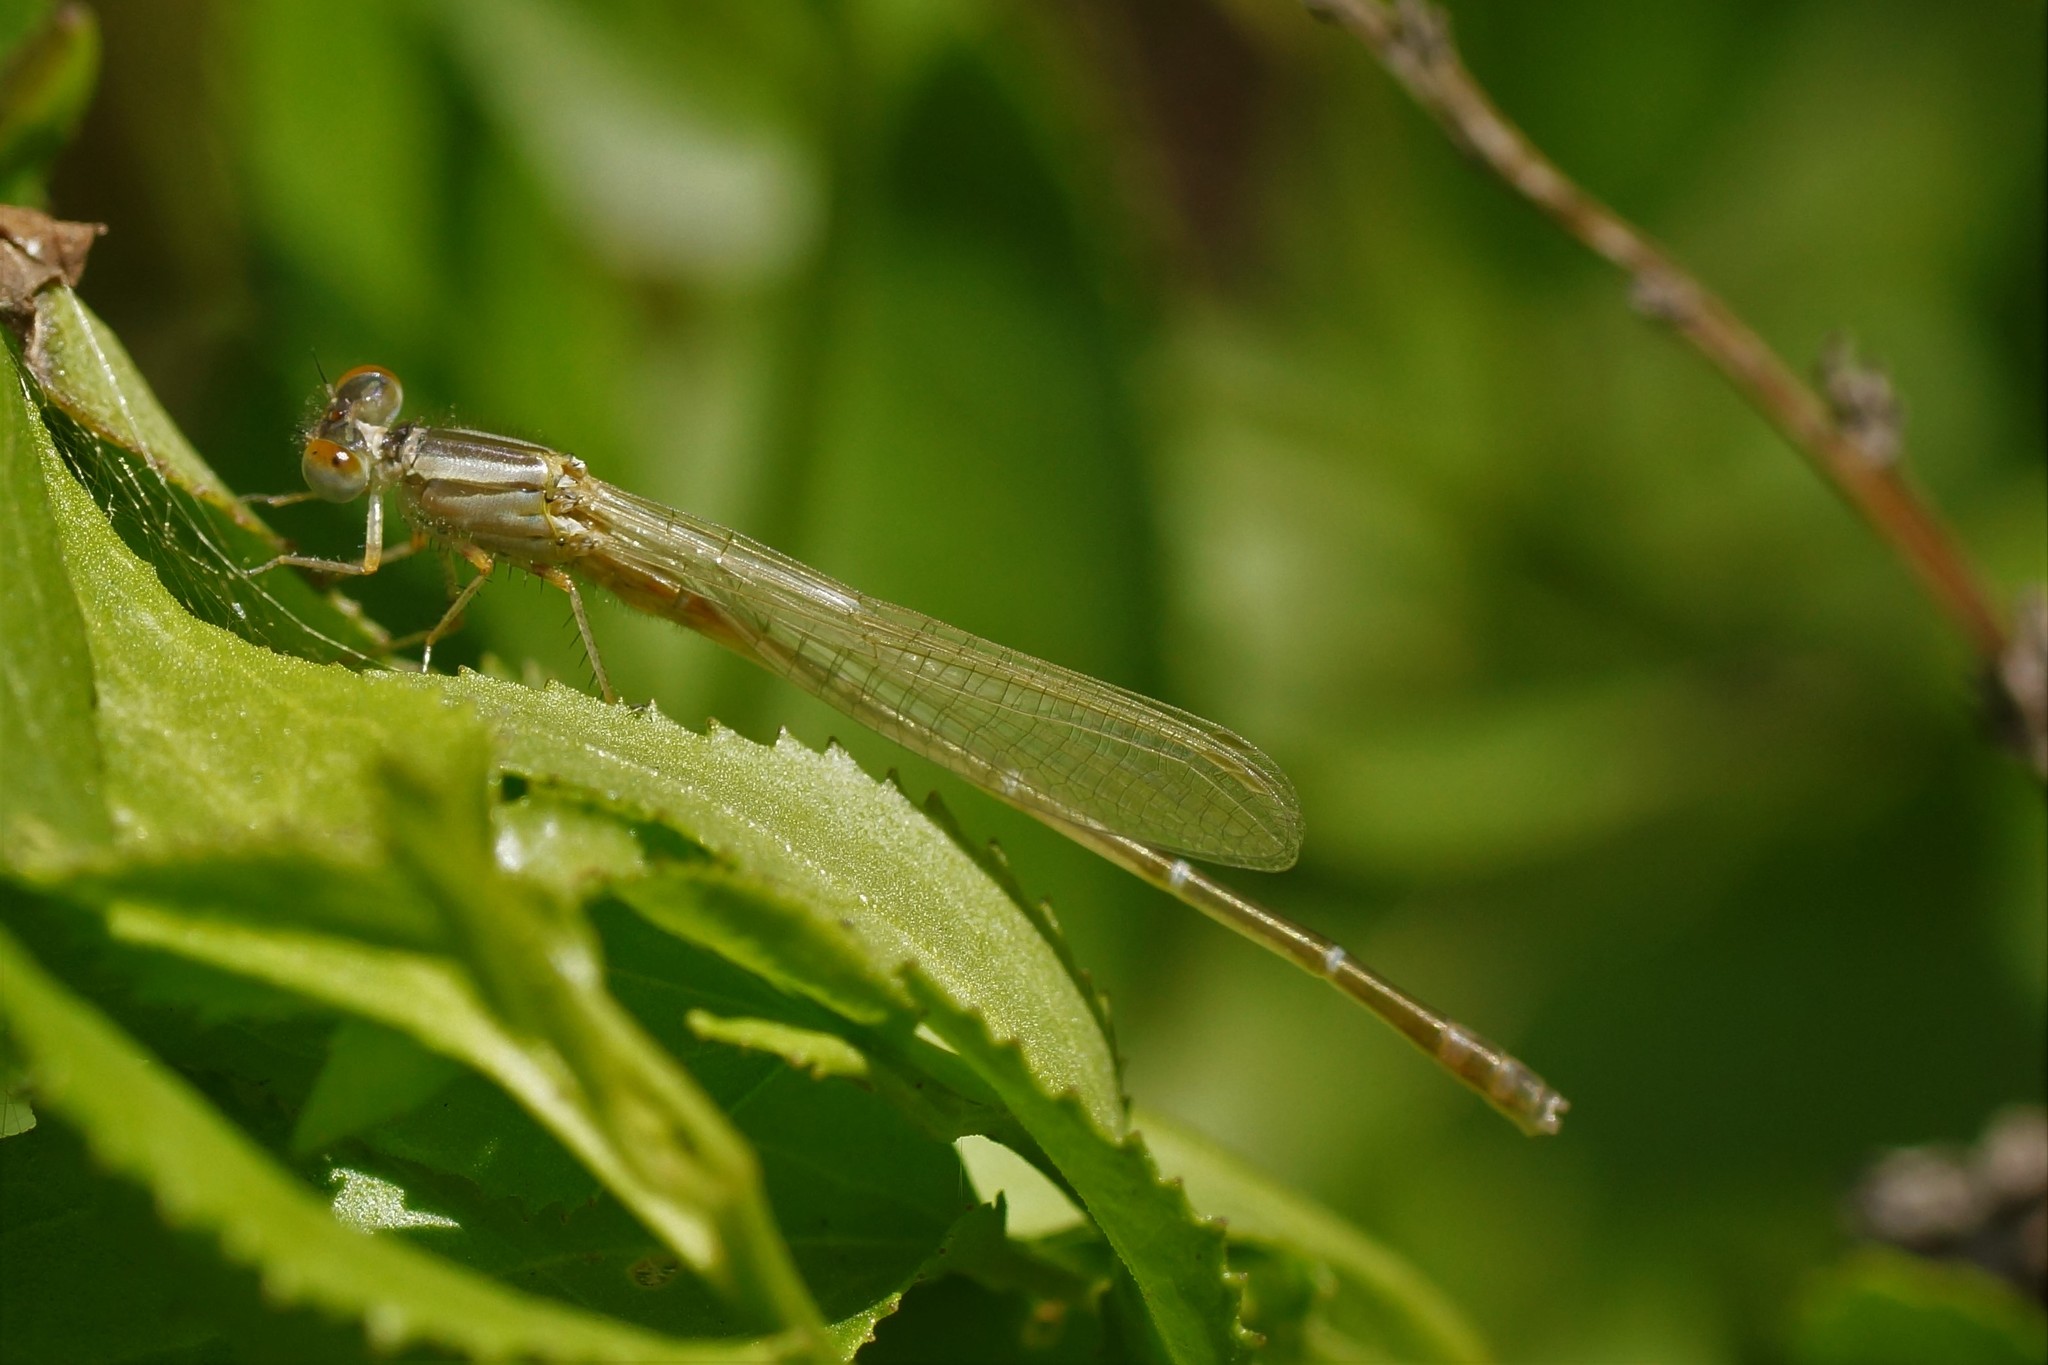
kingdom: Animalia
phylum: Arthropoda
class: Insecta
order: Odonata
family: Coenagrionidae
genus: Xanthagrion
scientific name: Xanthagrion erythroneurum
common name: Red and blue damsel
